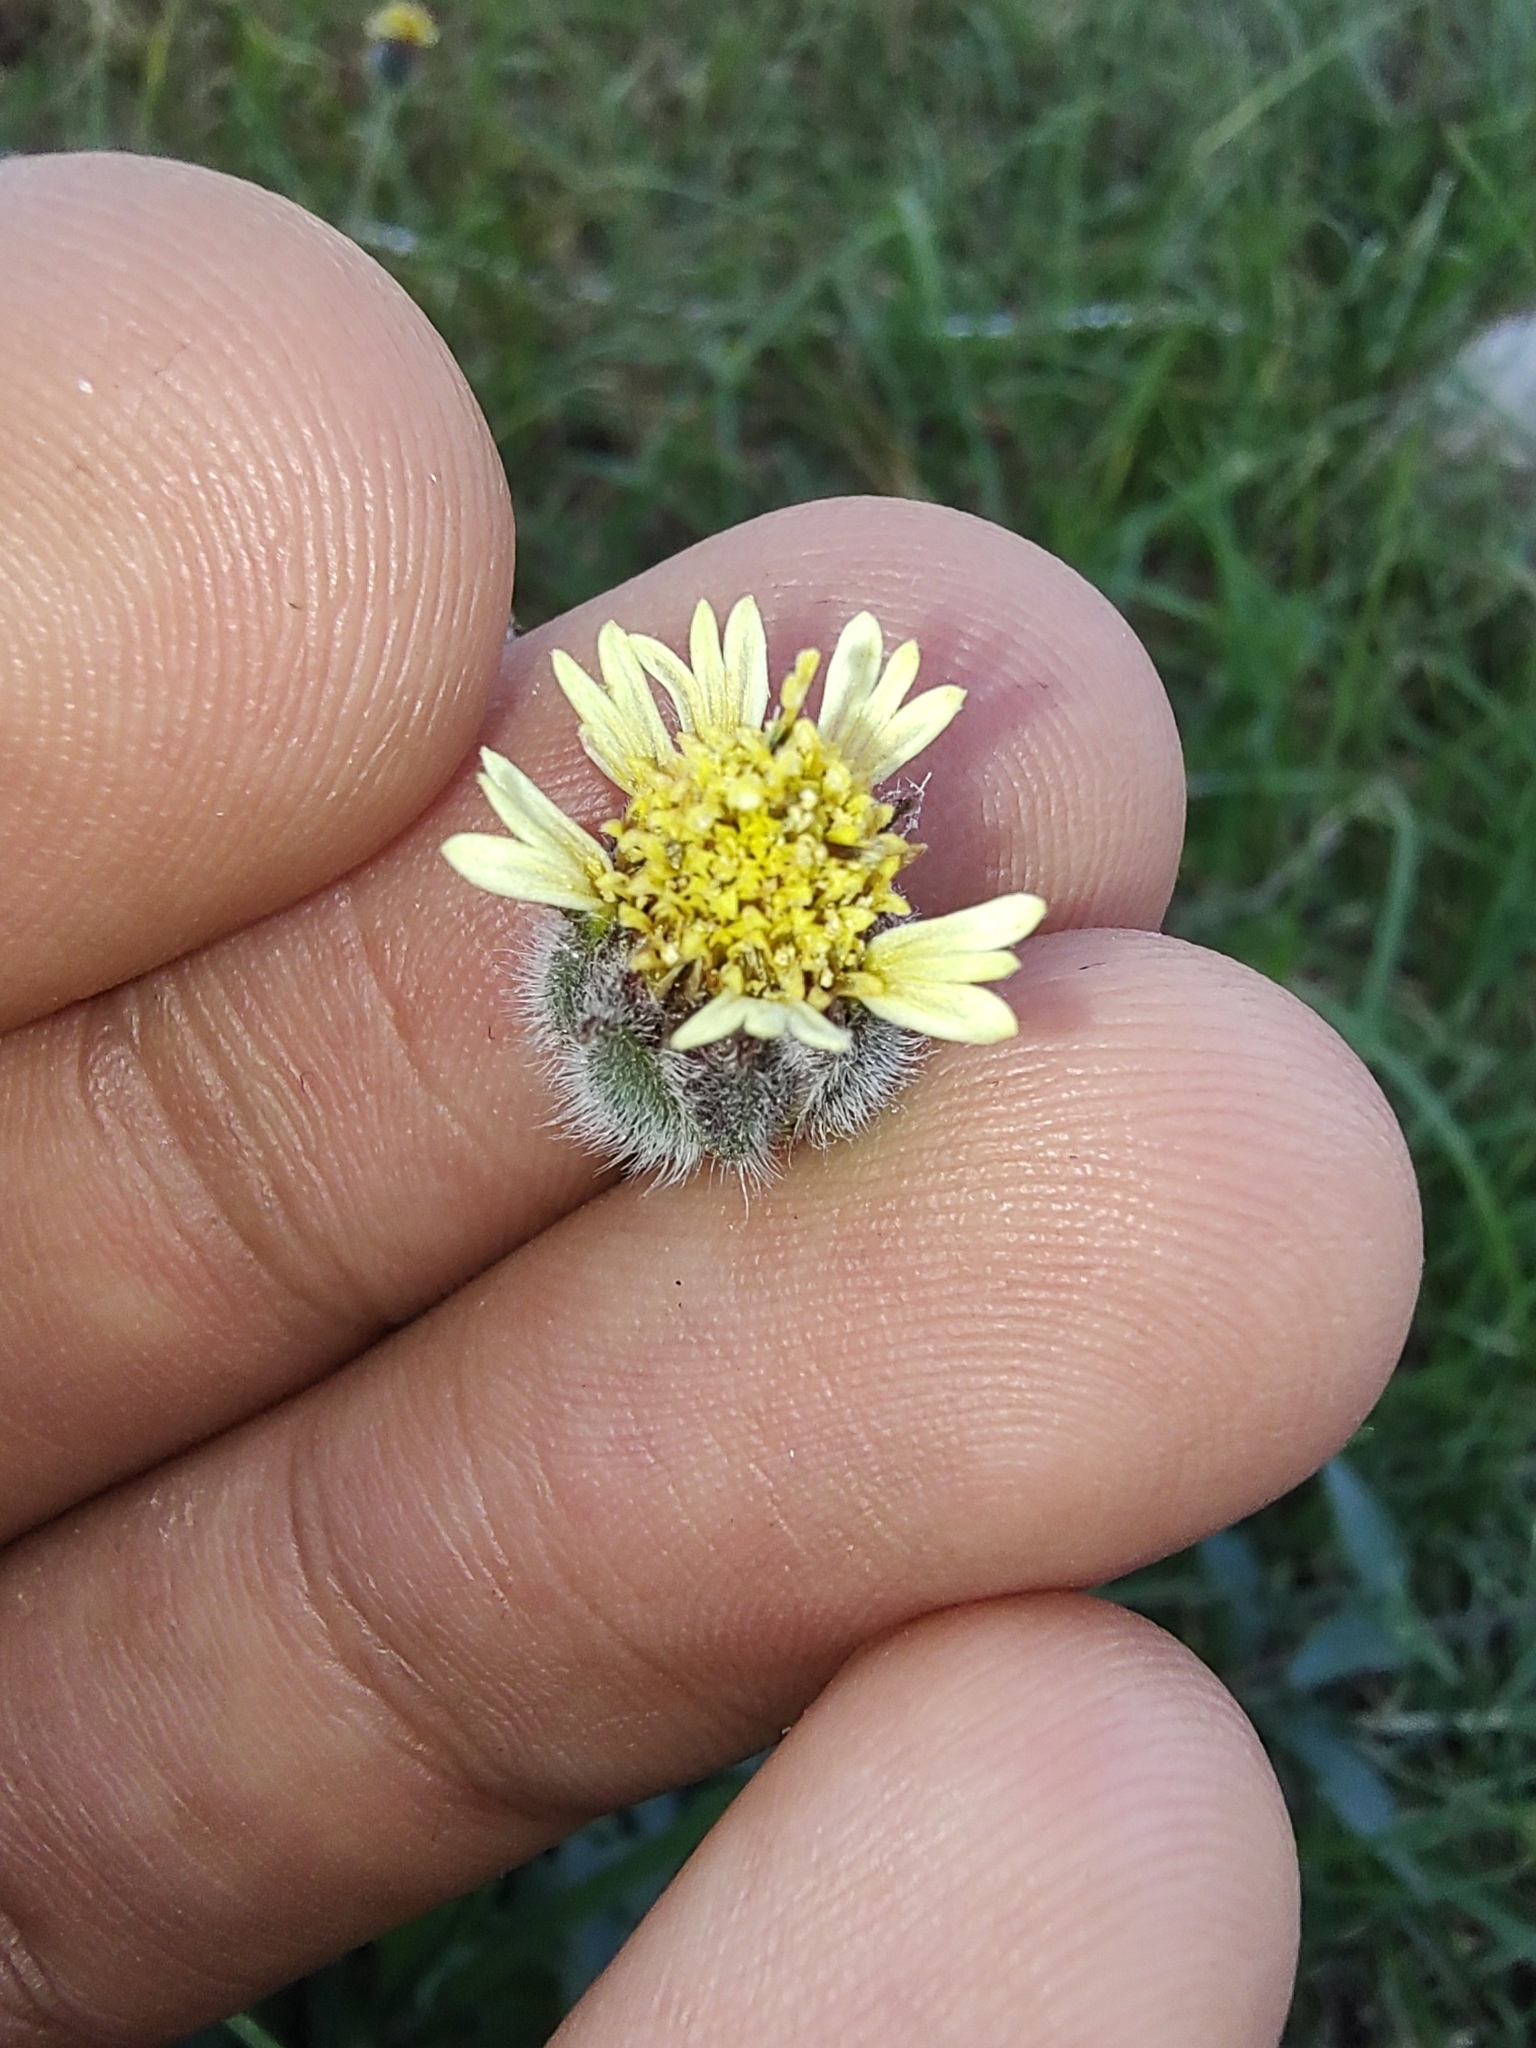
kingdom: Plantae
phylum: Tracheophyta
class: Magnoliopsida
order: Asterales
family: Asteraceae
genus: Tridax
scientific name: Tridax procumbens
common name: Coatbuttons
